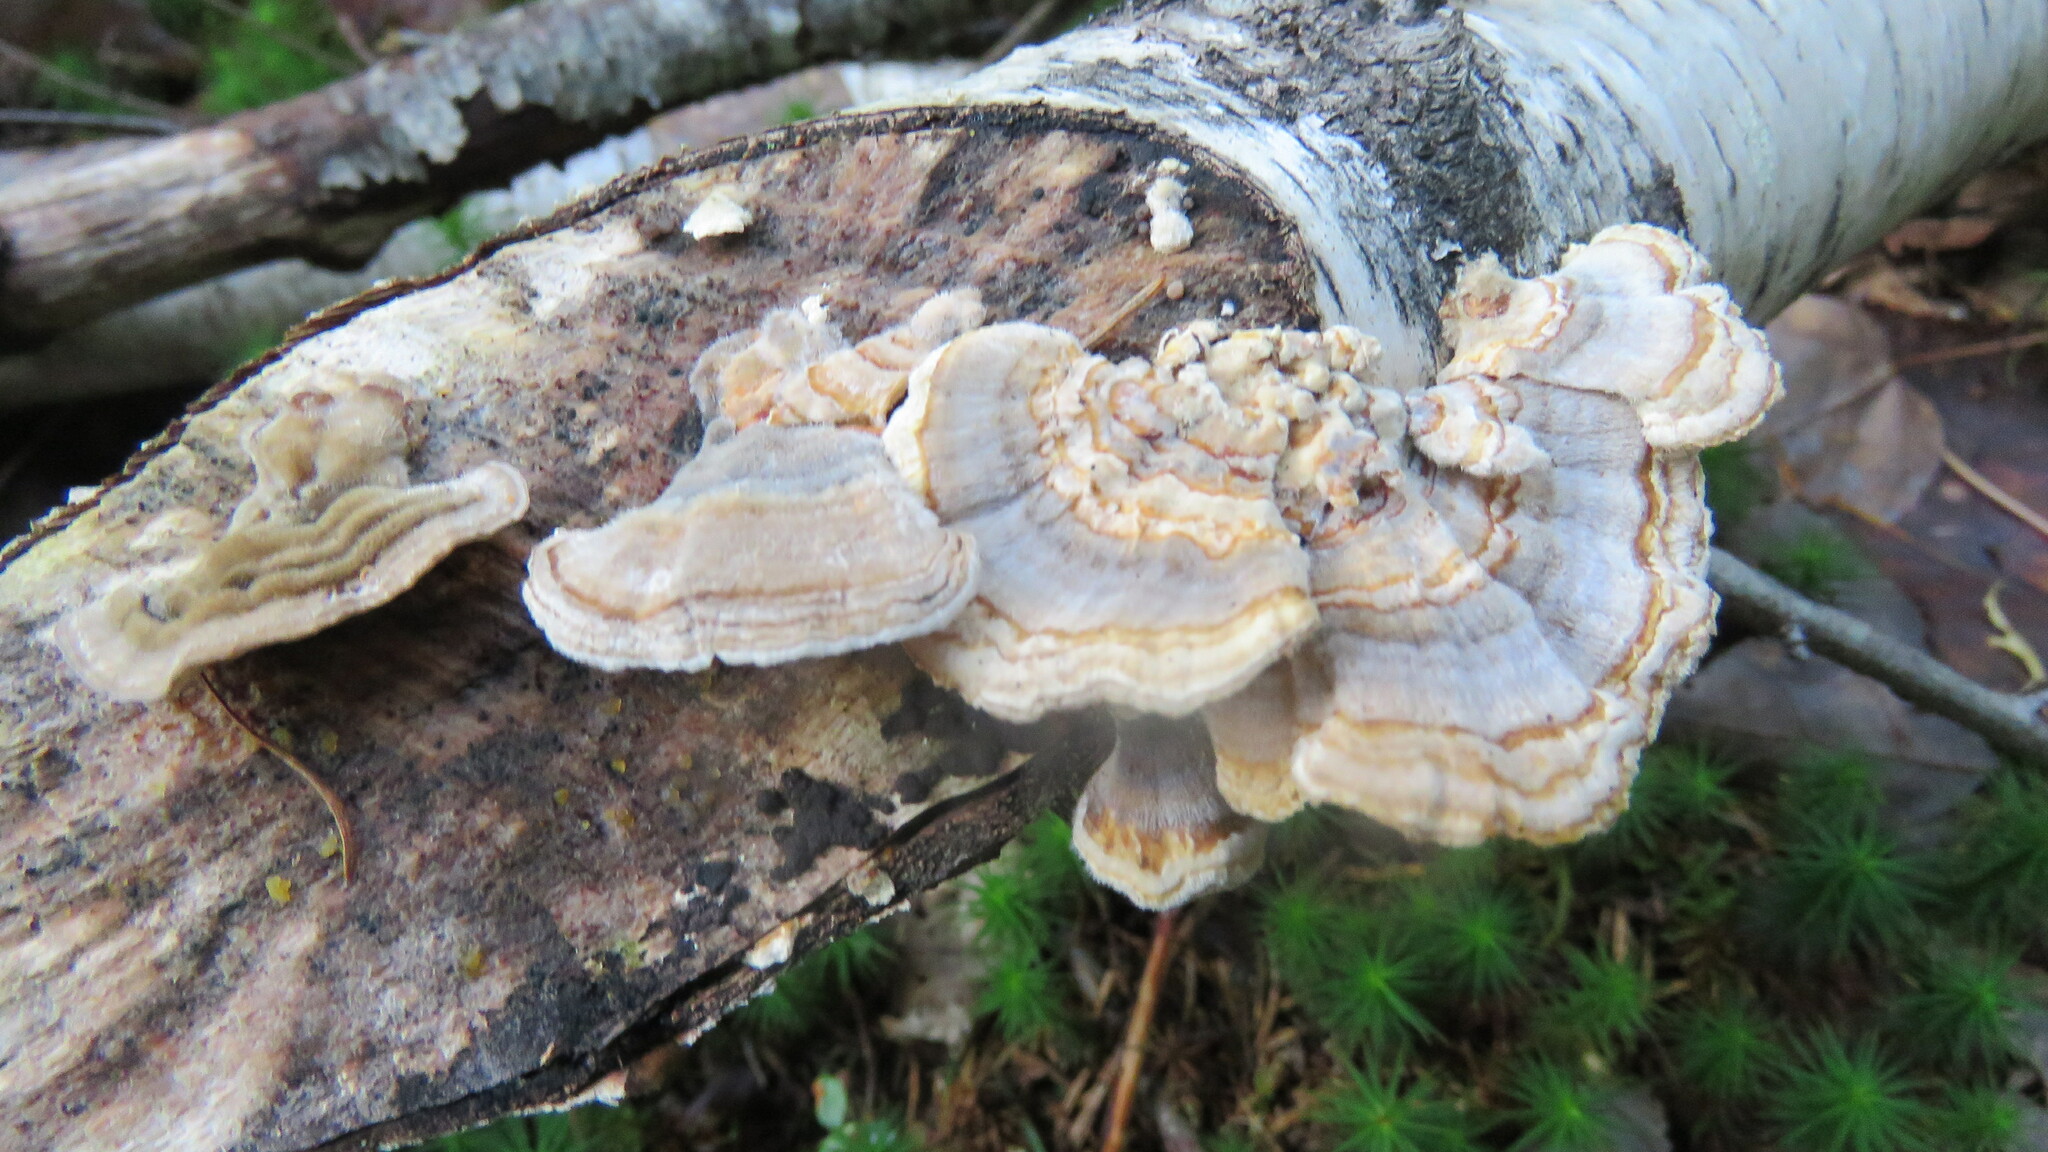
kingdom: Fungi
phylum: Basidiomycota
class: Agaricomycetes
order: Polyporales
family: Polyporaceae
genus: Trametes
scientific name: Trametes versicolor
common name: Turkeytail
